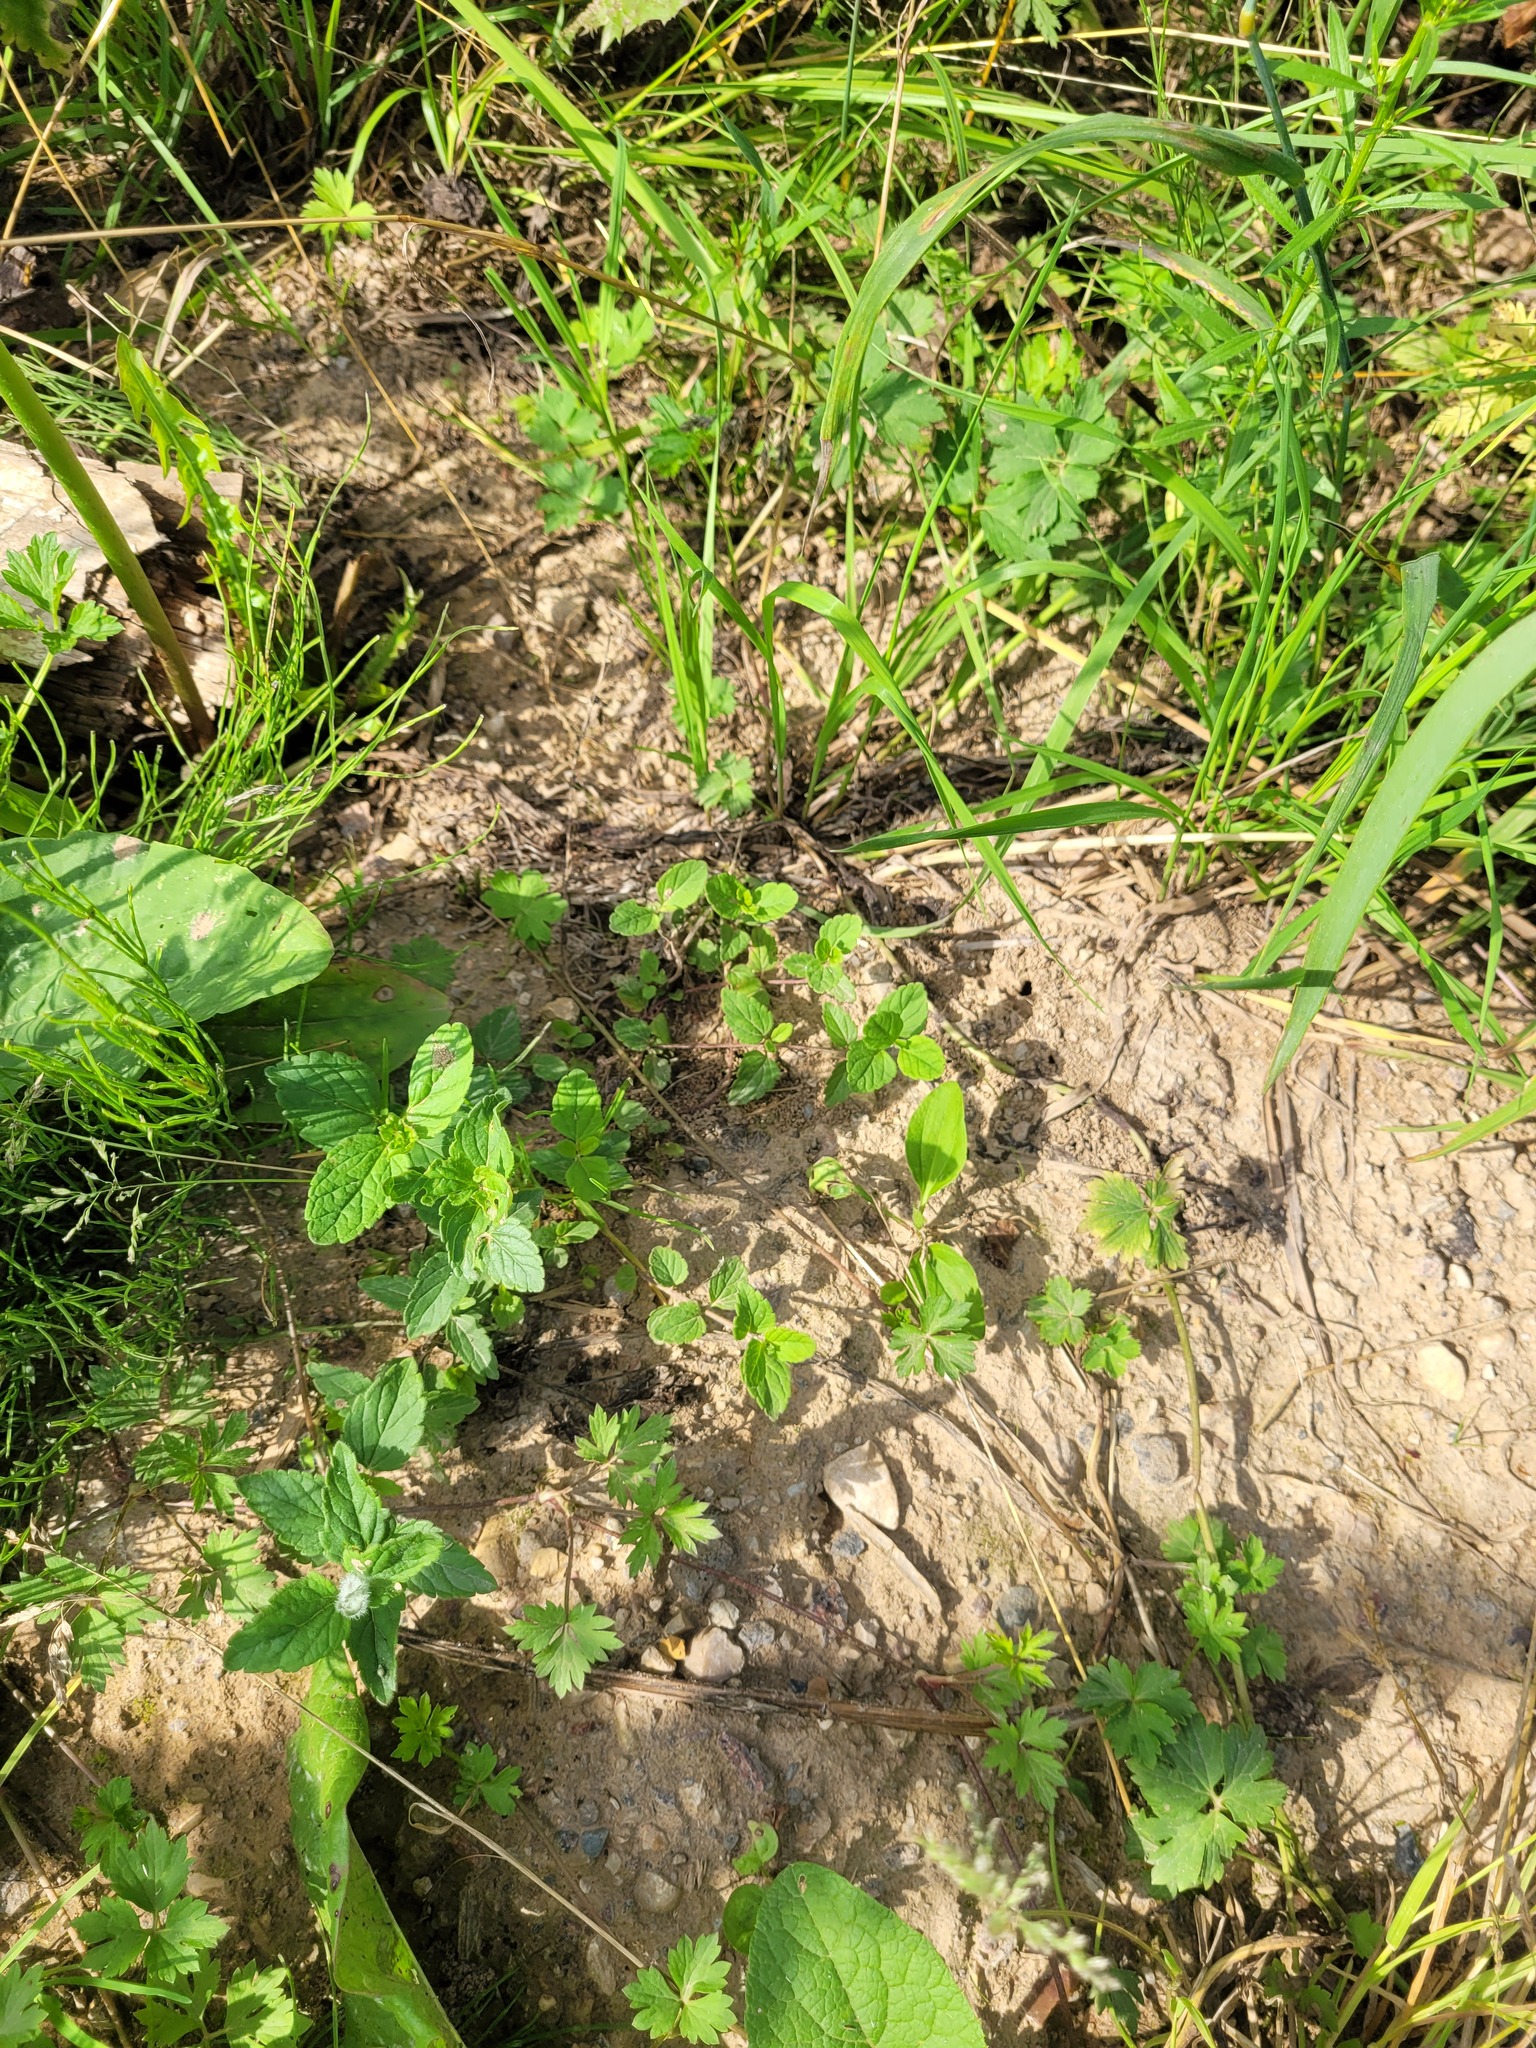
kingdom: Plantae
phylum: Tracheophyta
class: Magnoliopsida
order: Lamiales
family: Plantaginaceae
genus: Veronica
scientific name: Veronica chamaedrys
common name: Germander speedwell
